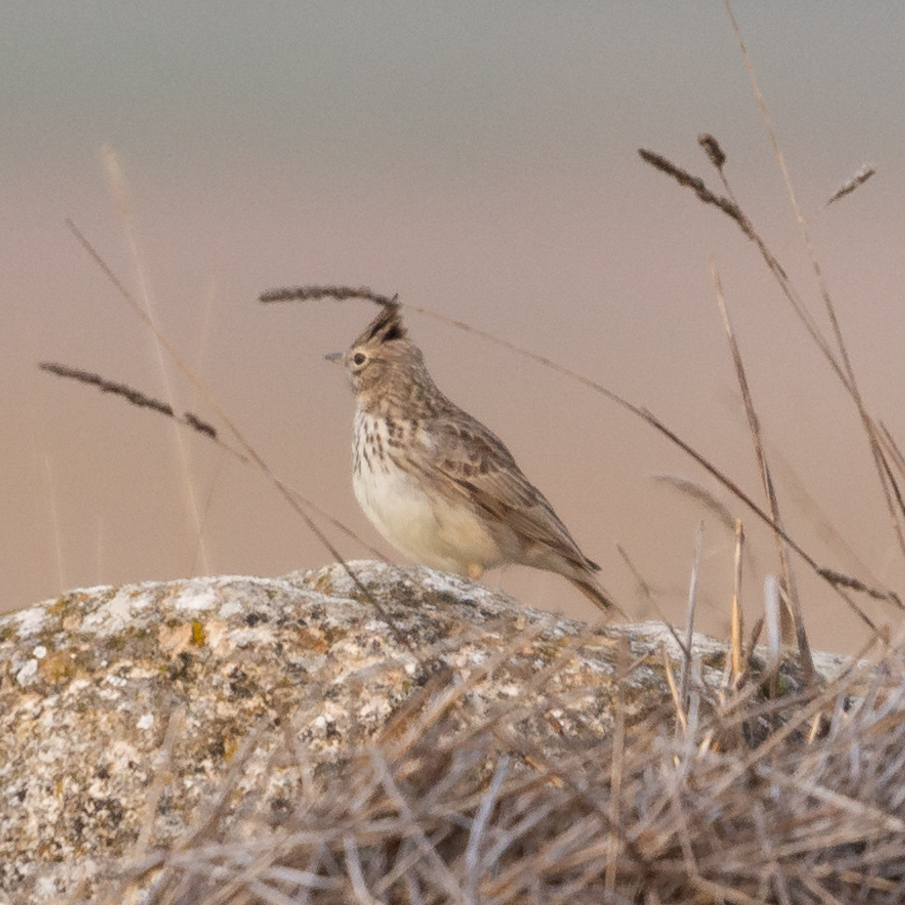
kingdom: Animalia
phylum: Chordata
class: Aves
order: Passeriformes
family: Alaudidae
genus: Galerida
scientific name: Galerida theklae
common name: Thekla lark
